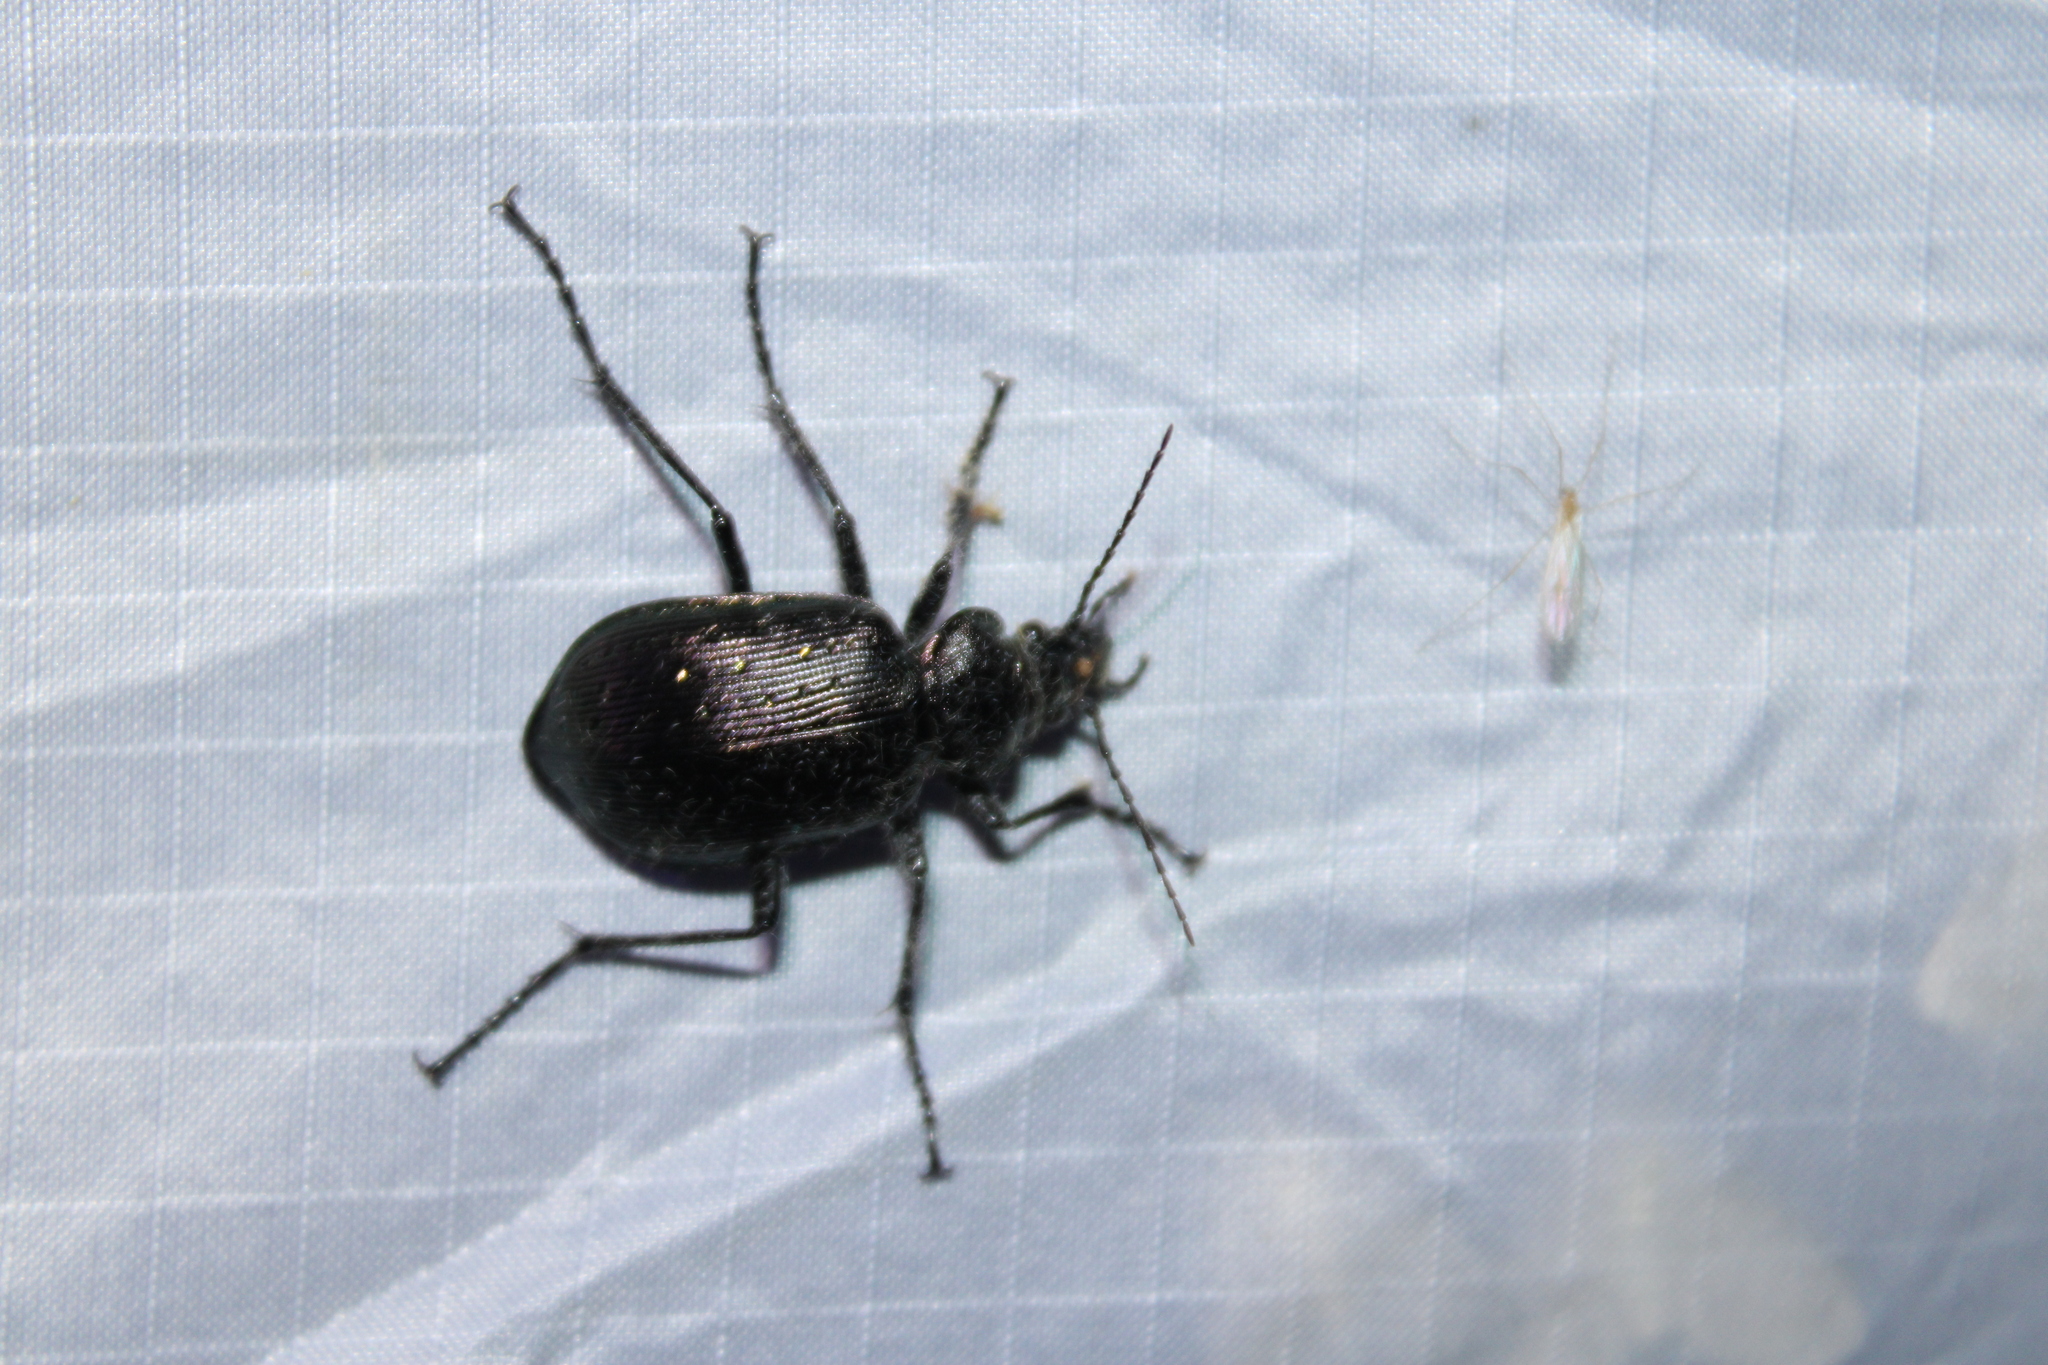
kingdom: Animalia
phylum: Arthropoda
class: Insecta
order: Coleoptera
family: Carabidae
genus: Calosoma
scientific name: Calosoma frigidum
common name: Cold-country caterpillar hunter
